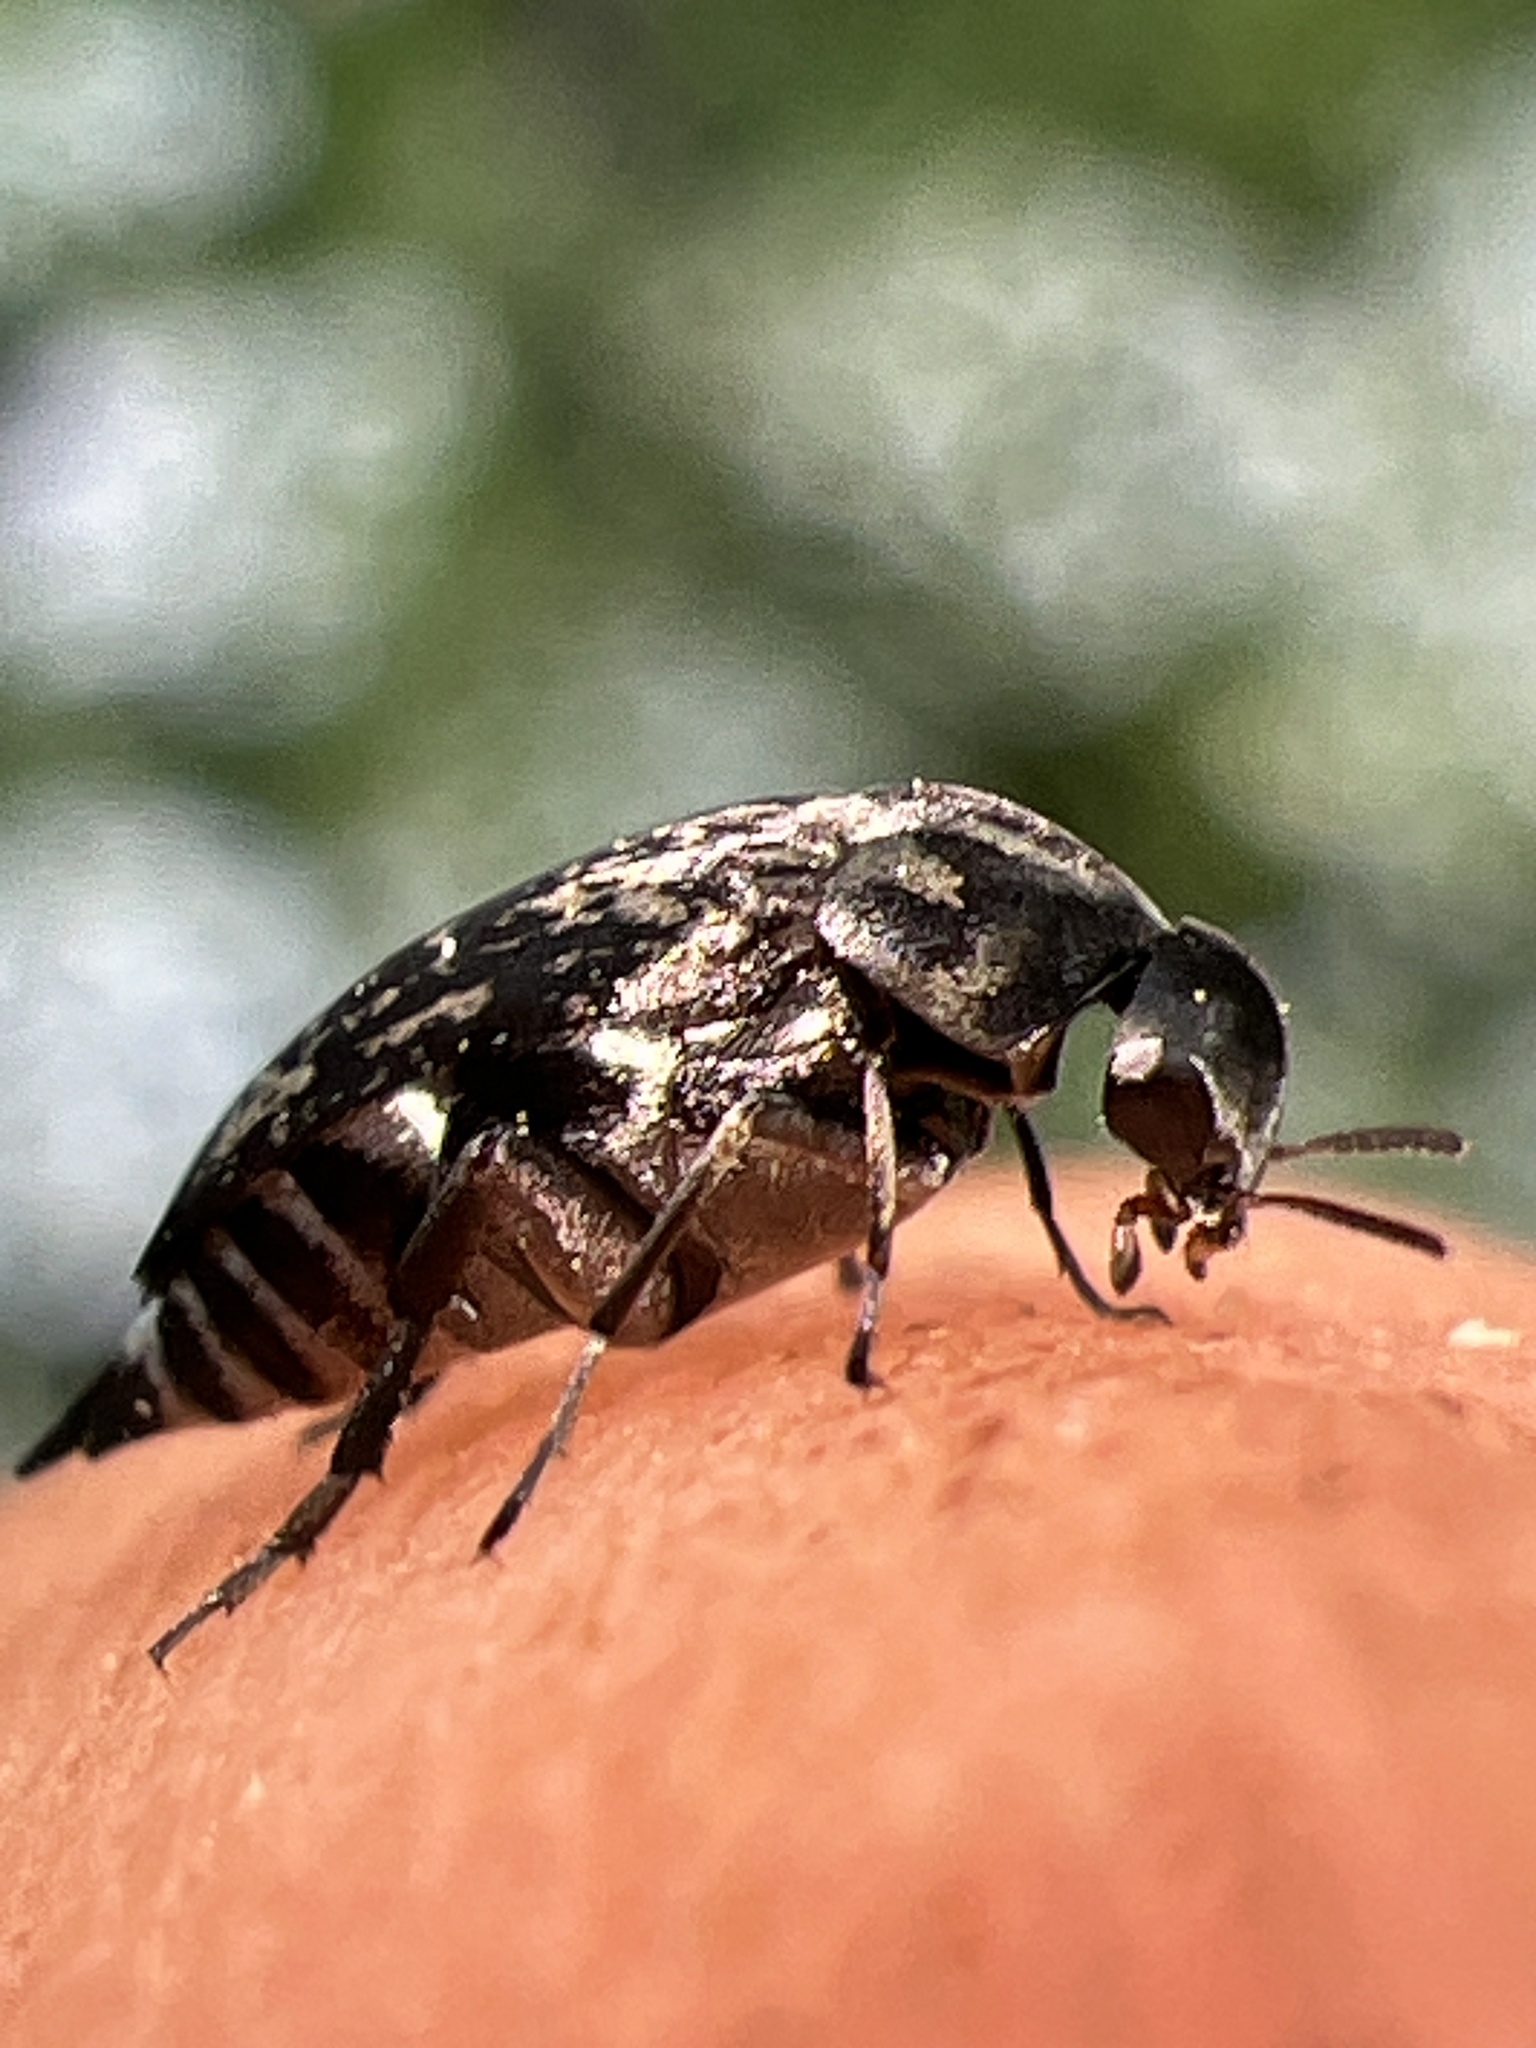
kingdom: Animalia
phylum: Arthropoda
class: Insecta
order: Coleoptera
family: Mordellidae
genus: Mordella
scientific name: Mordella marginata
